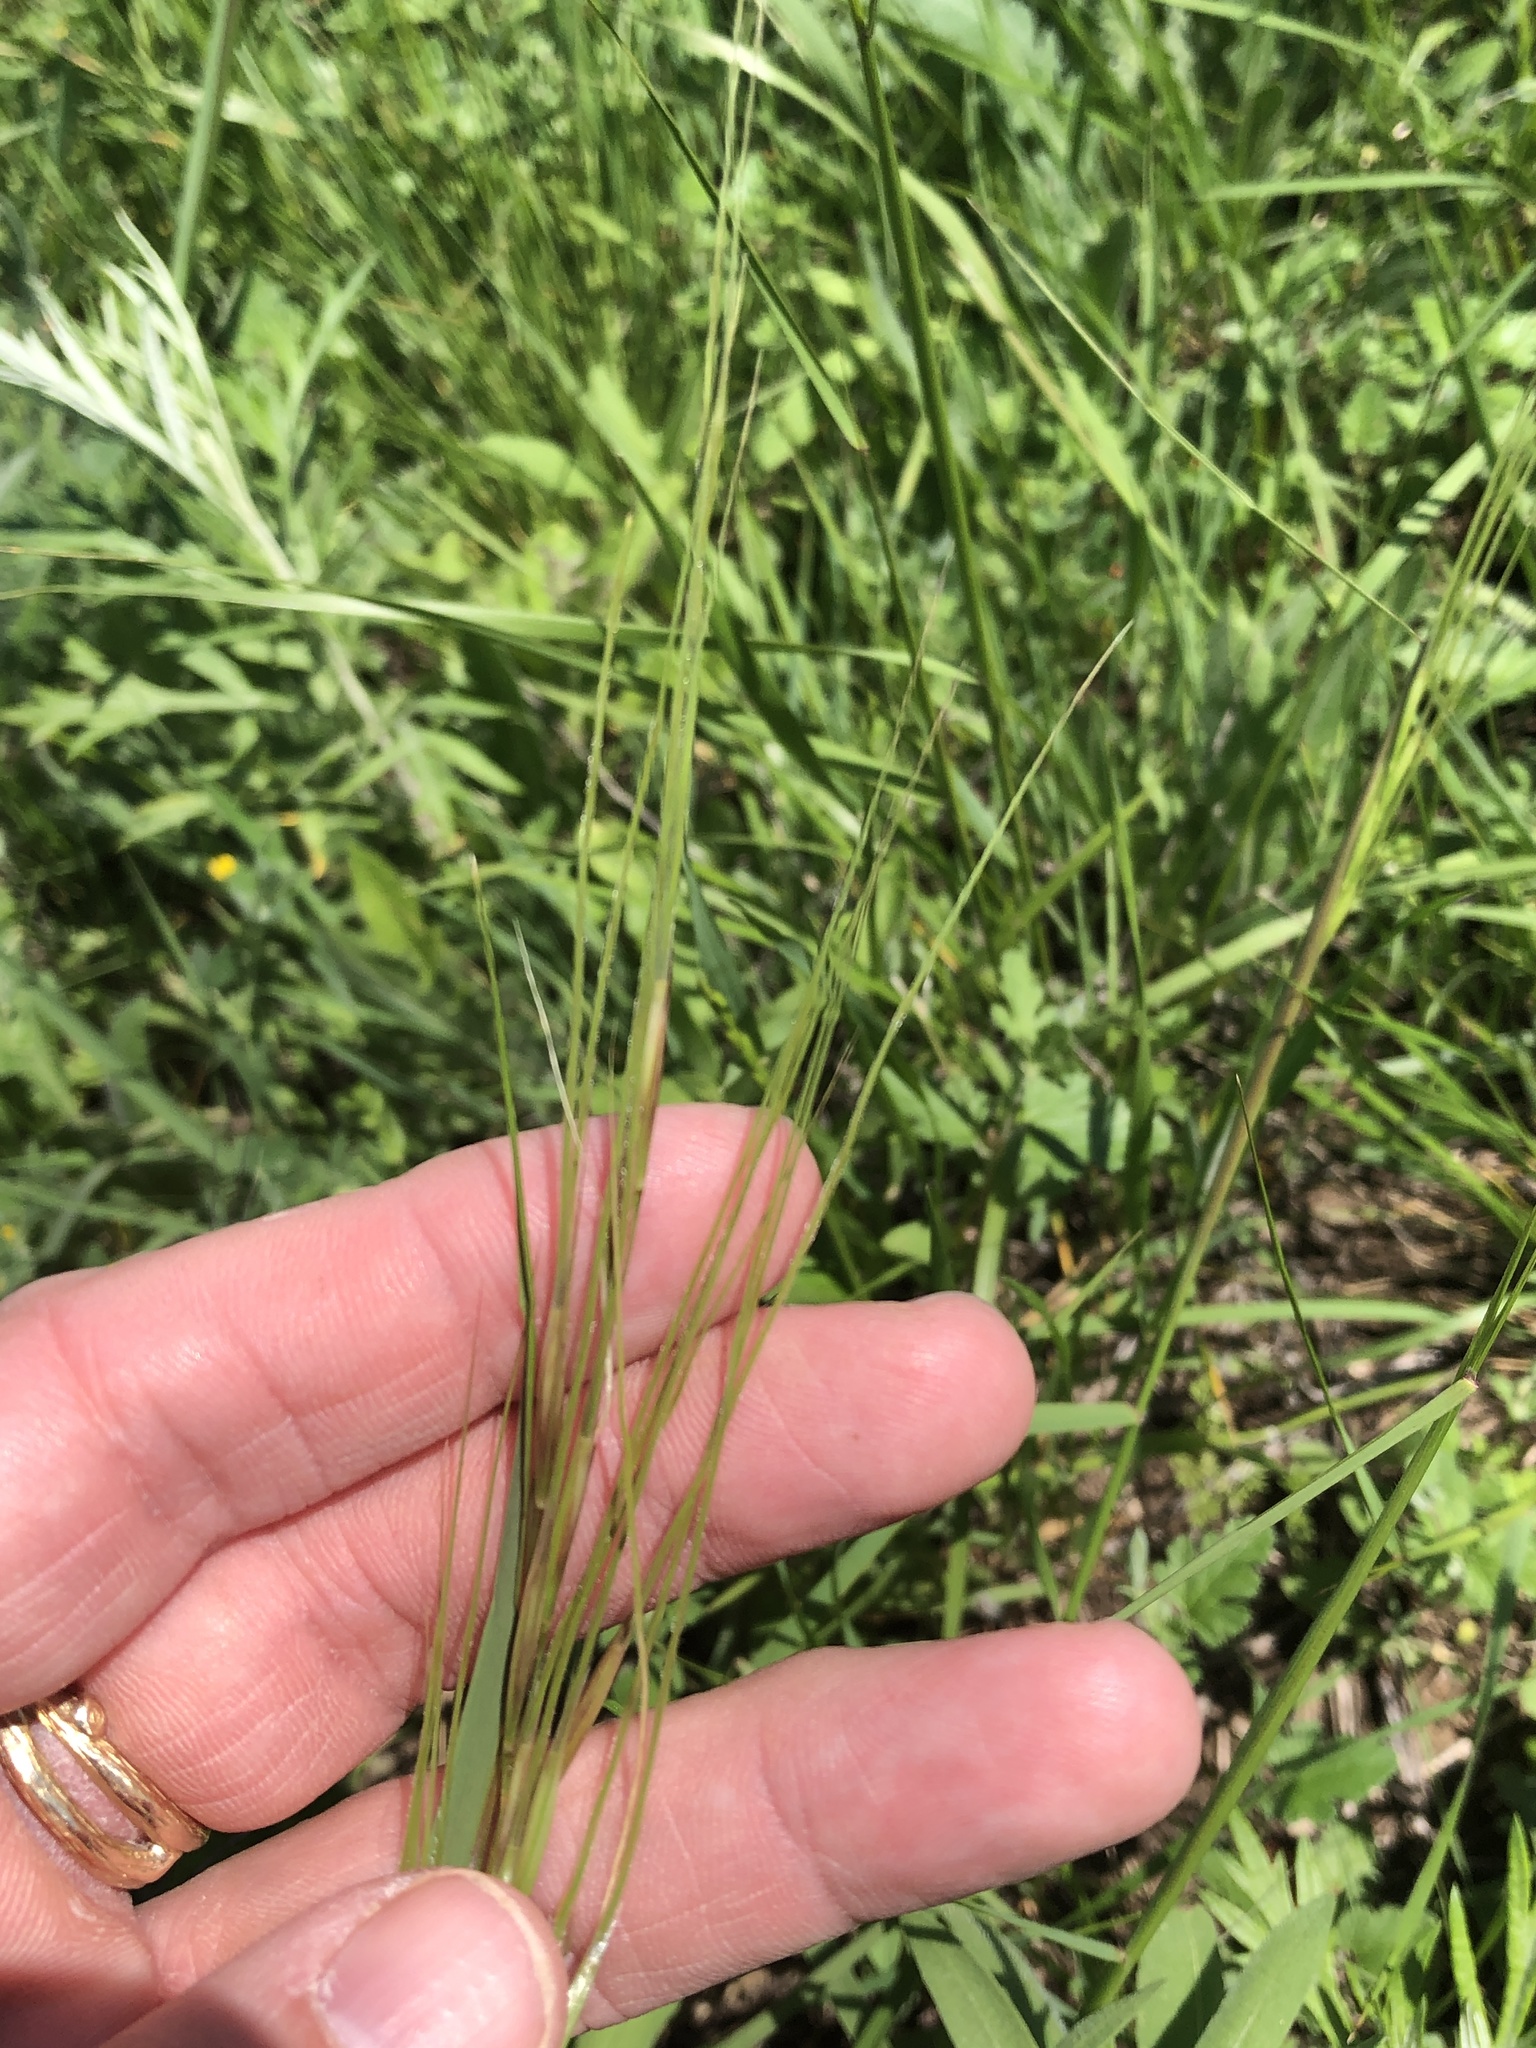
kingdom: Plantae
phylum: Tracheophyta
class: Liliopsida
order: Poales
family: Poaceae
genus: Nassella
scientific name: Nassella leucotricha
